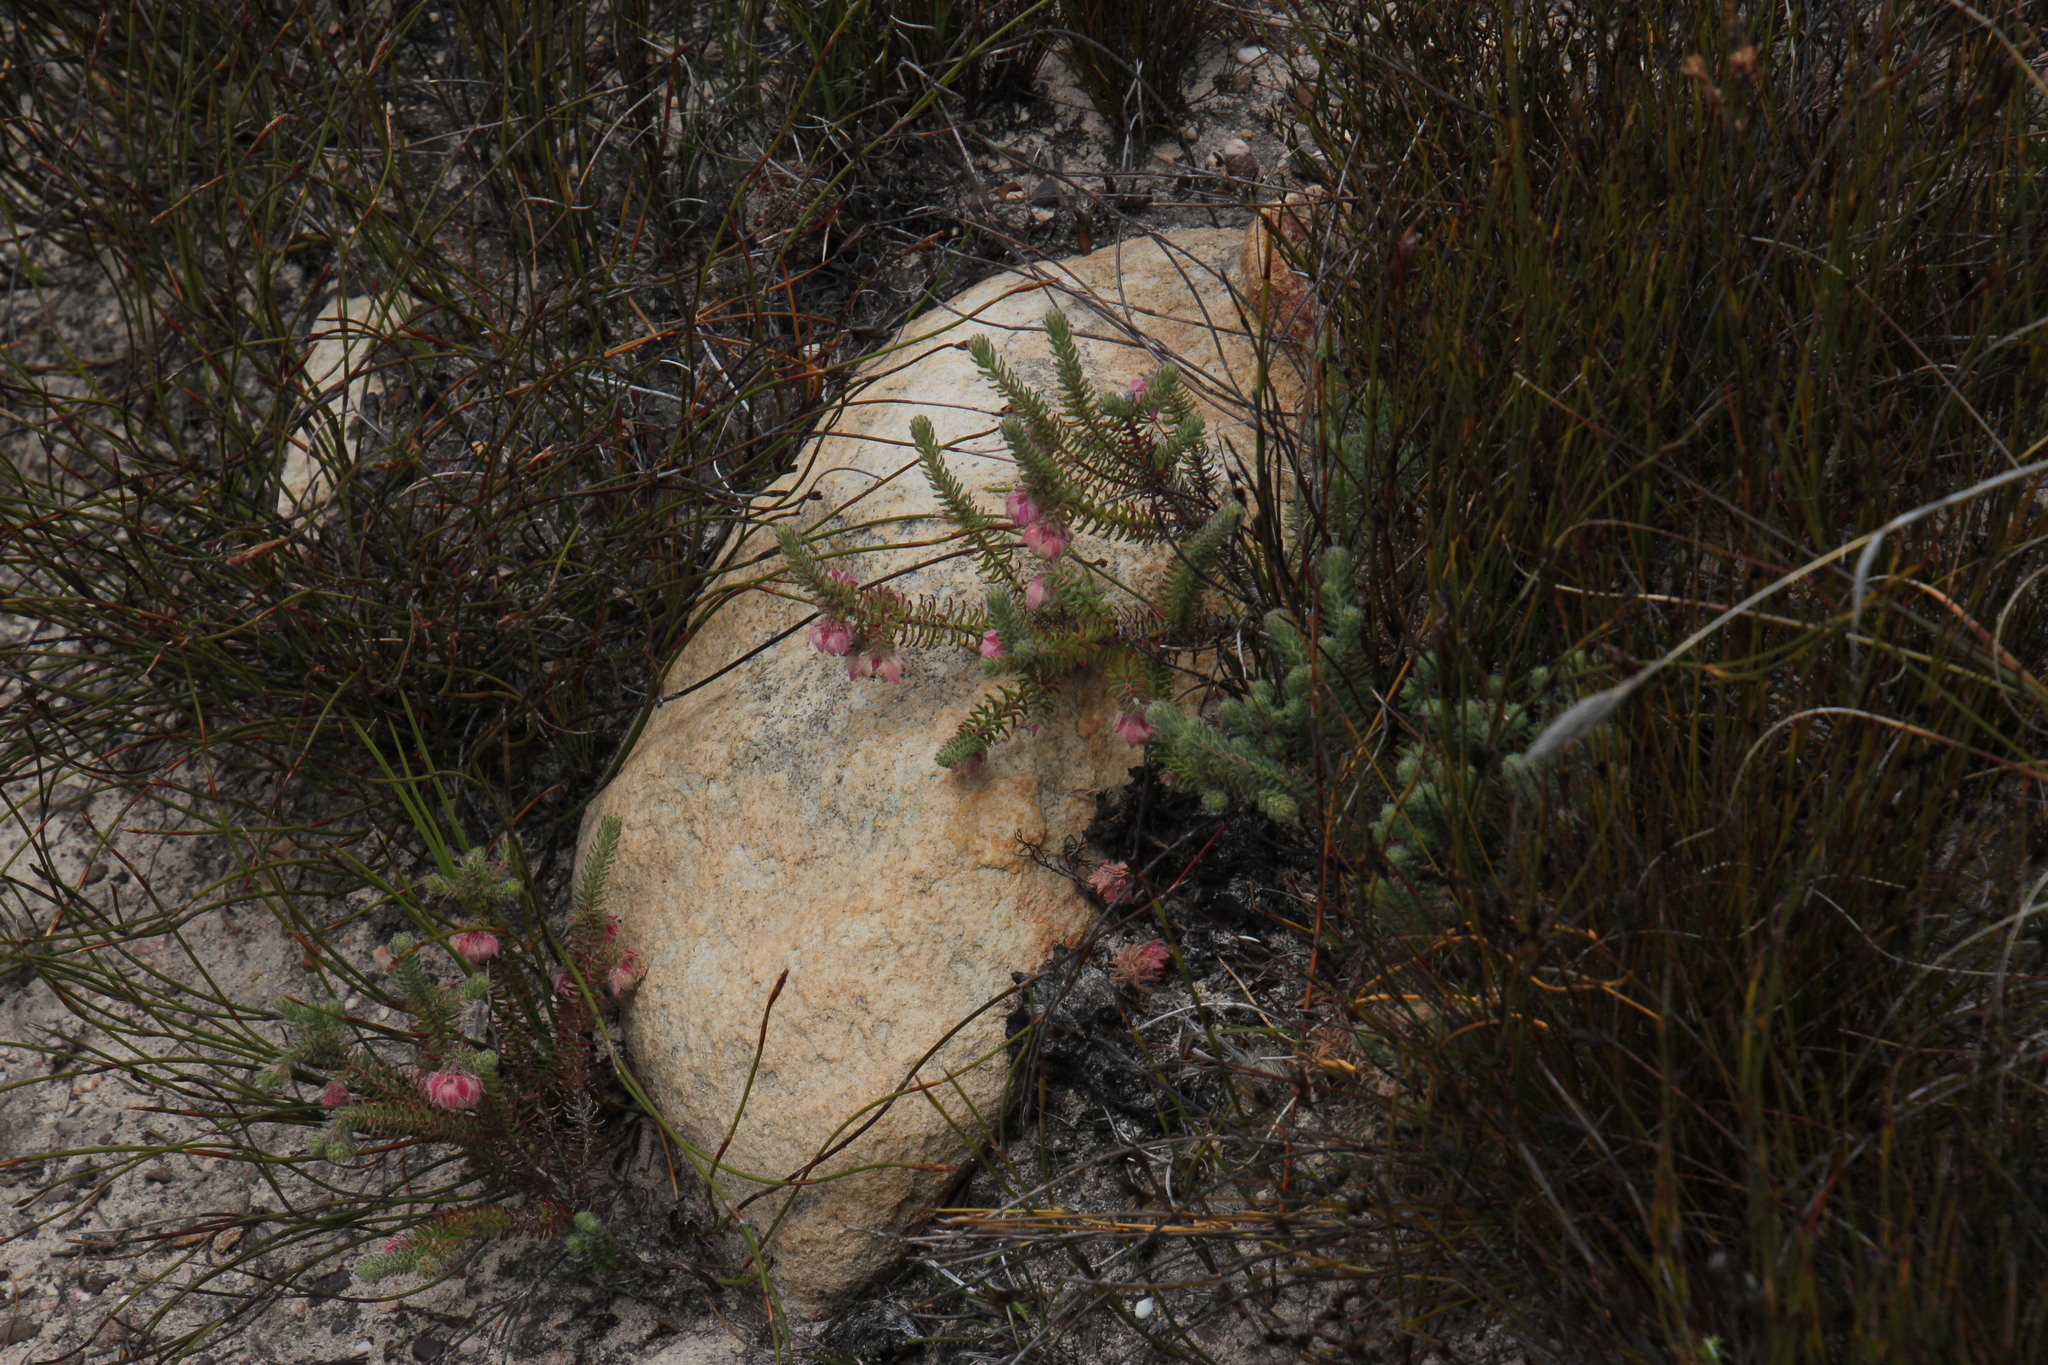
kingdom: Plantae
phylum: Tracheophyta
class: Magnoliopsida
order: Ericales
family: Ericaceae
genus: Erica
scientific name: Erica involucrata
